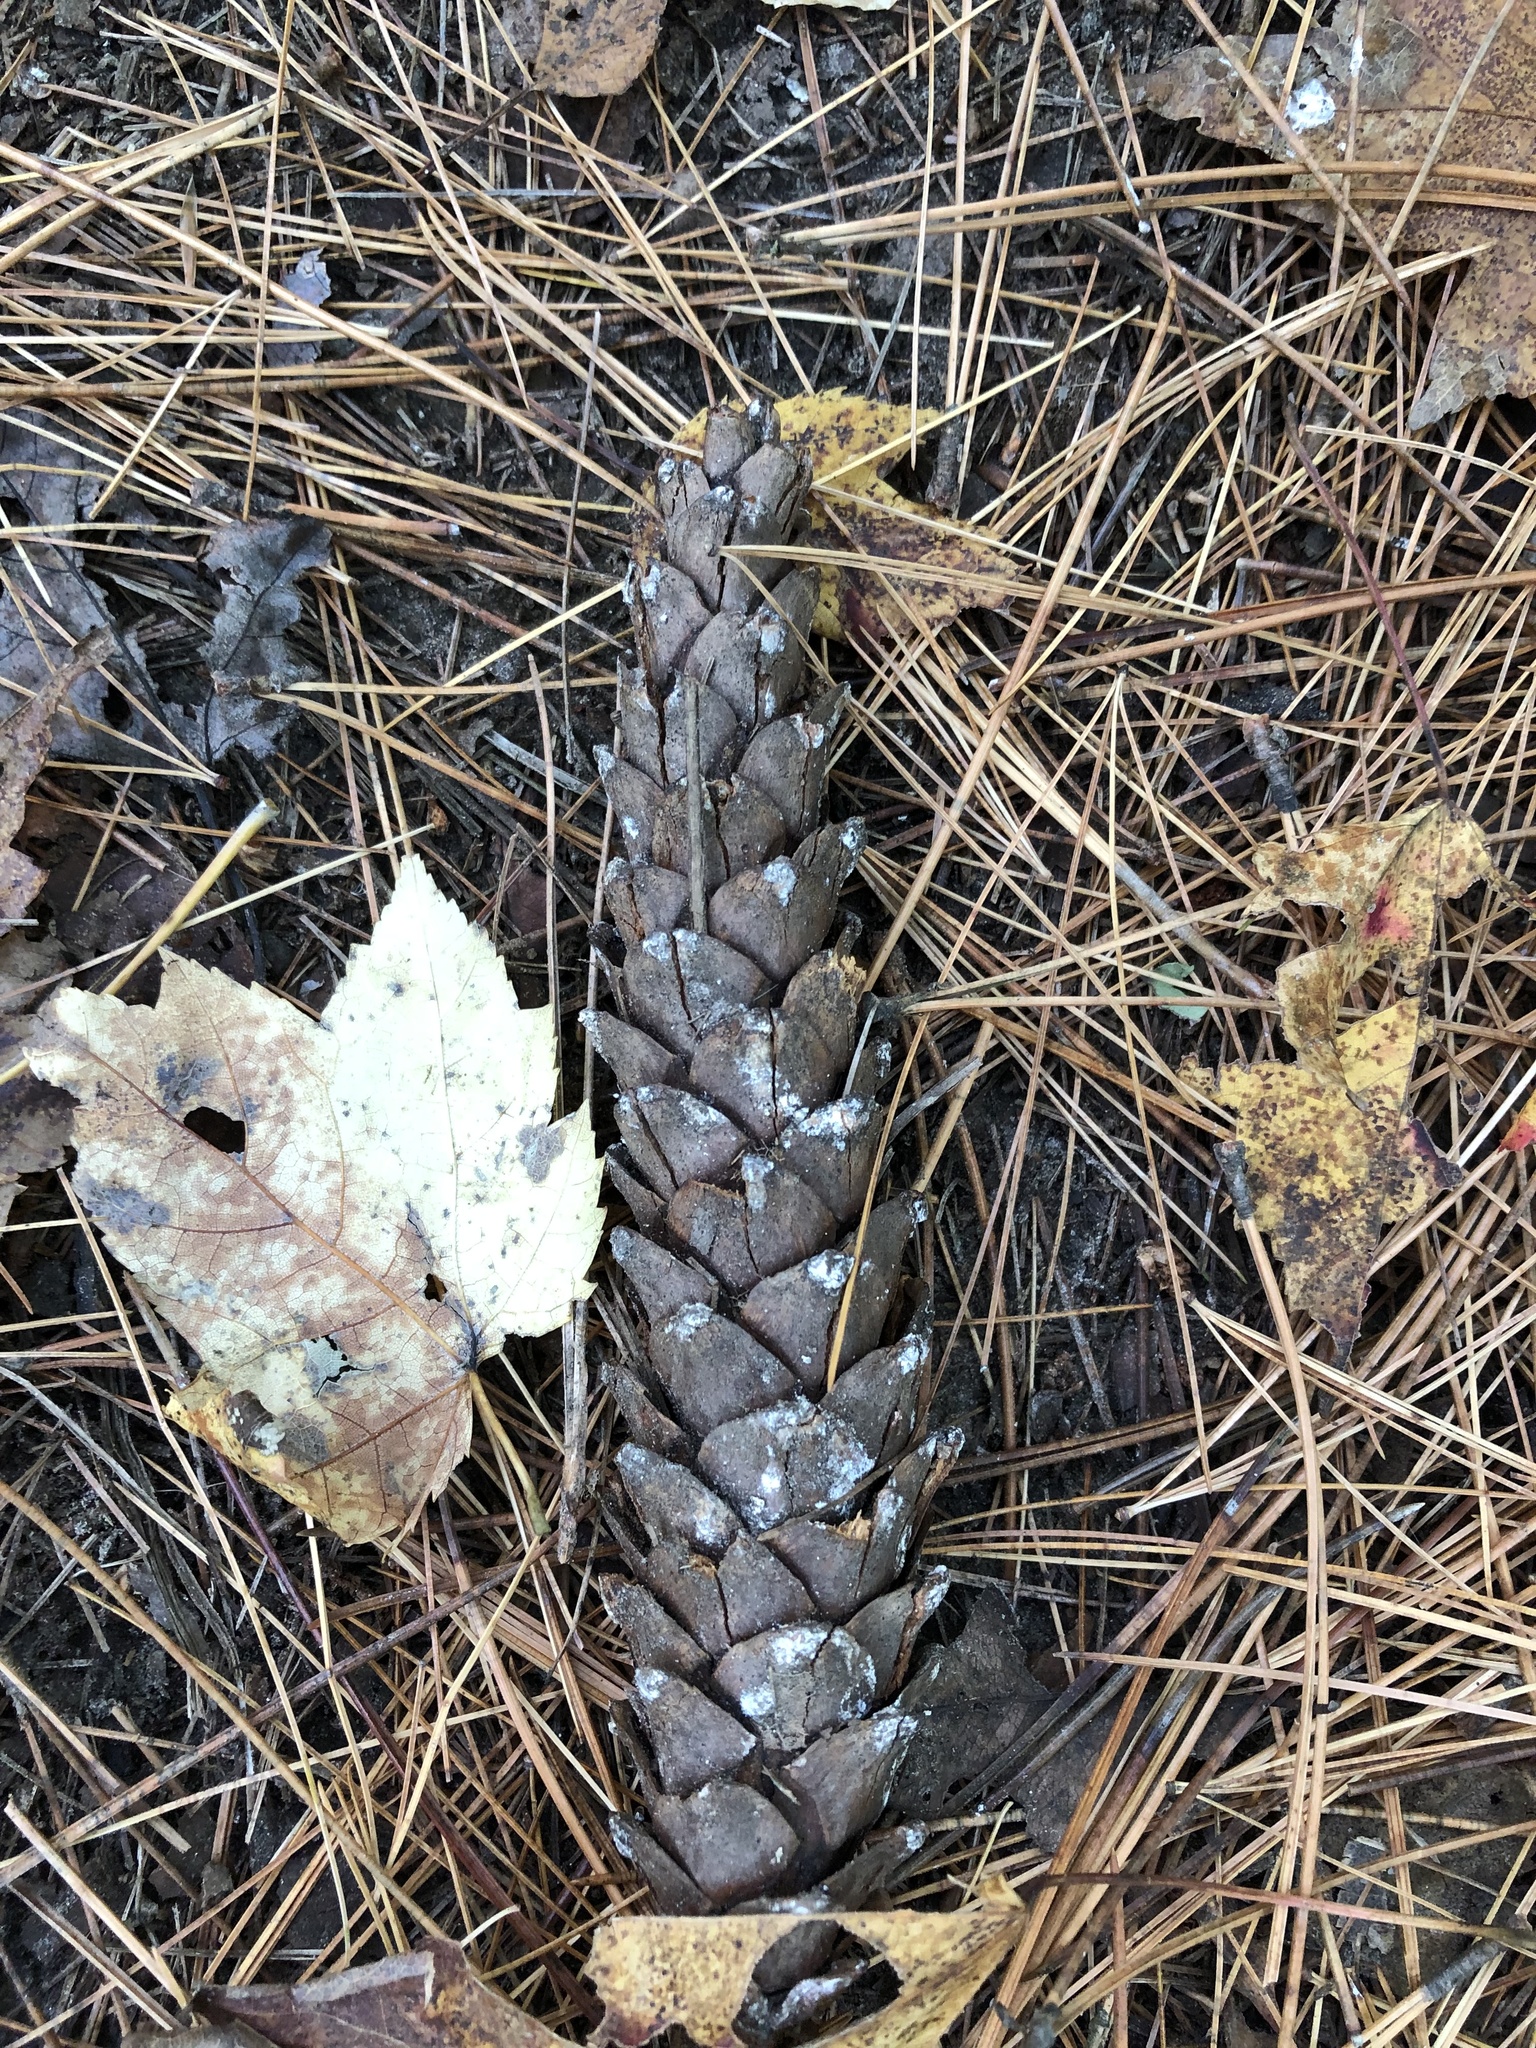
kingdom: Plantae
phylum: Tracheophyta
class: Pinopsida
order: Pinales
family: Pinaceae
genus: Pinus
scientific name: Pinus strobus
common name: Weymouth pine
